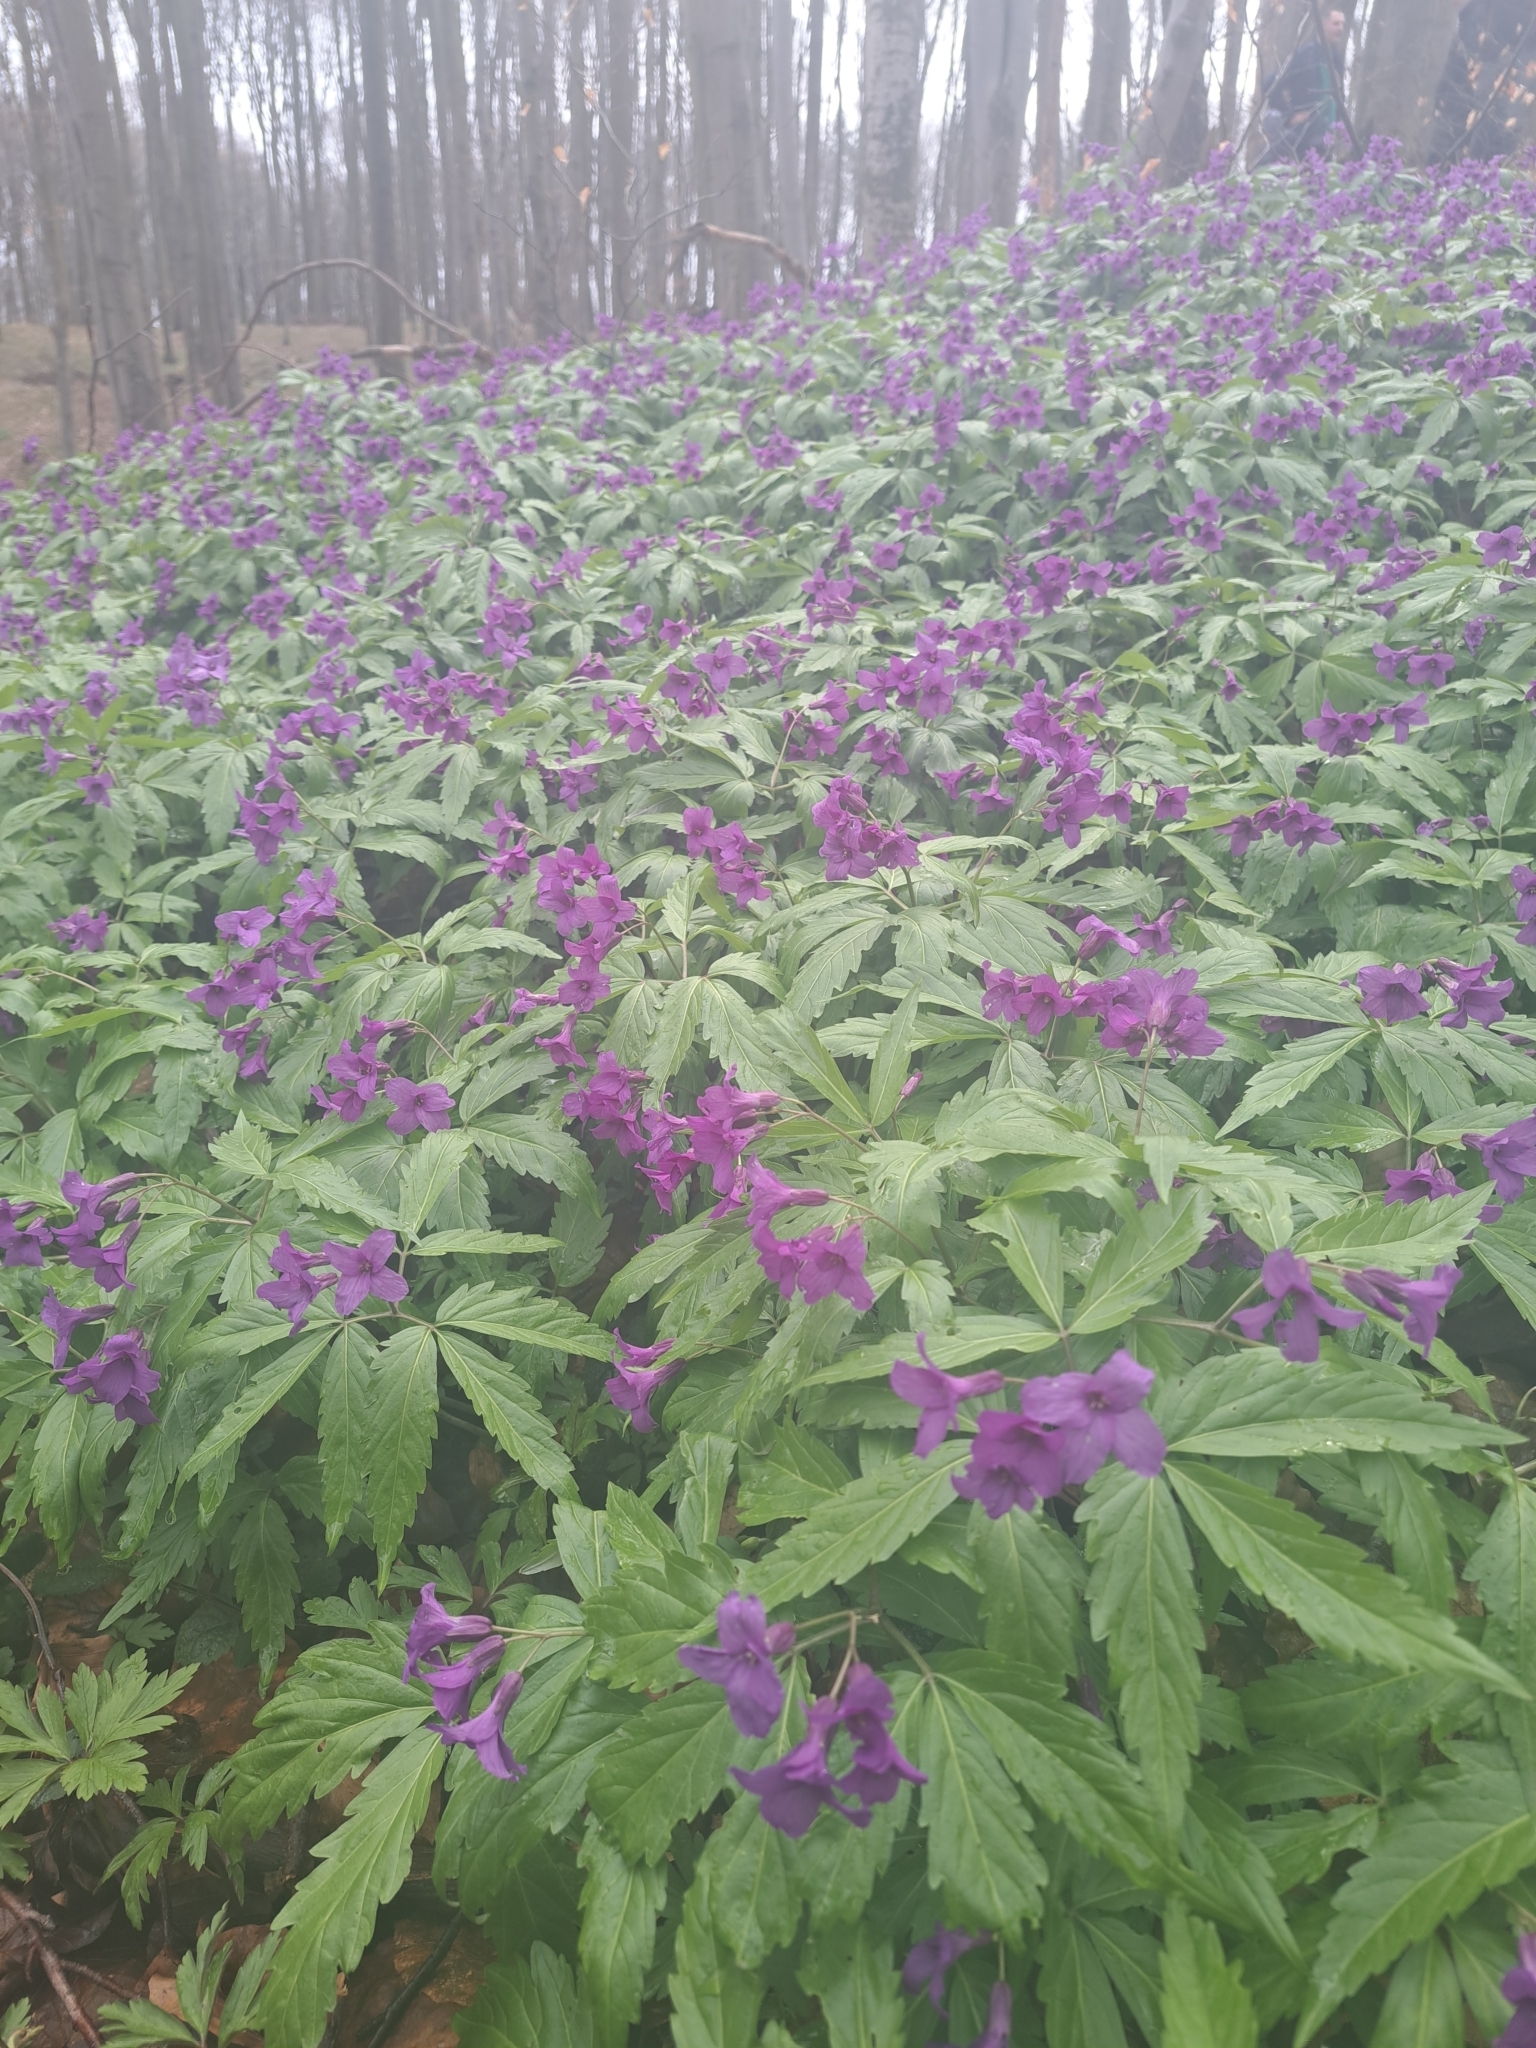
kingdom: Plantae
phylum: Tracheophyta
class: Magnoliopsida
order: Brassicales
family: Brassicaceae
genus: Cardamine
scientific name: Cardamine glanduligera
